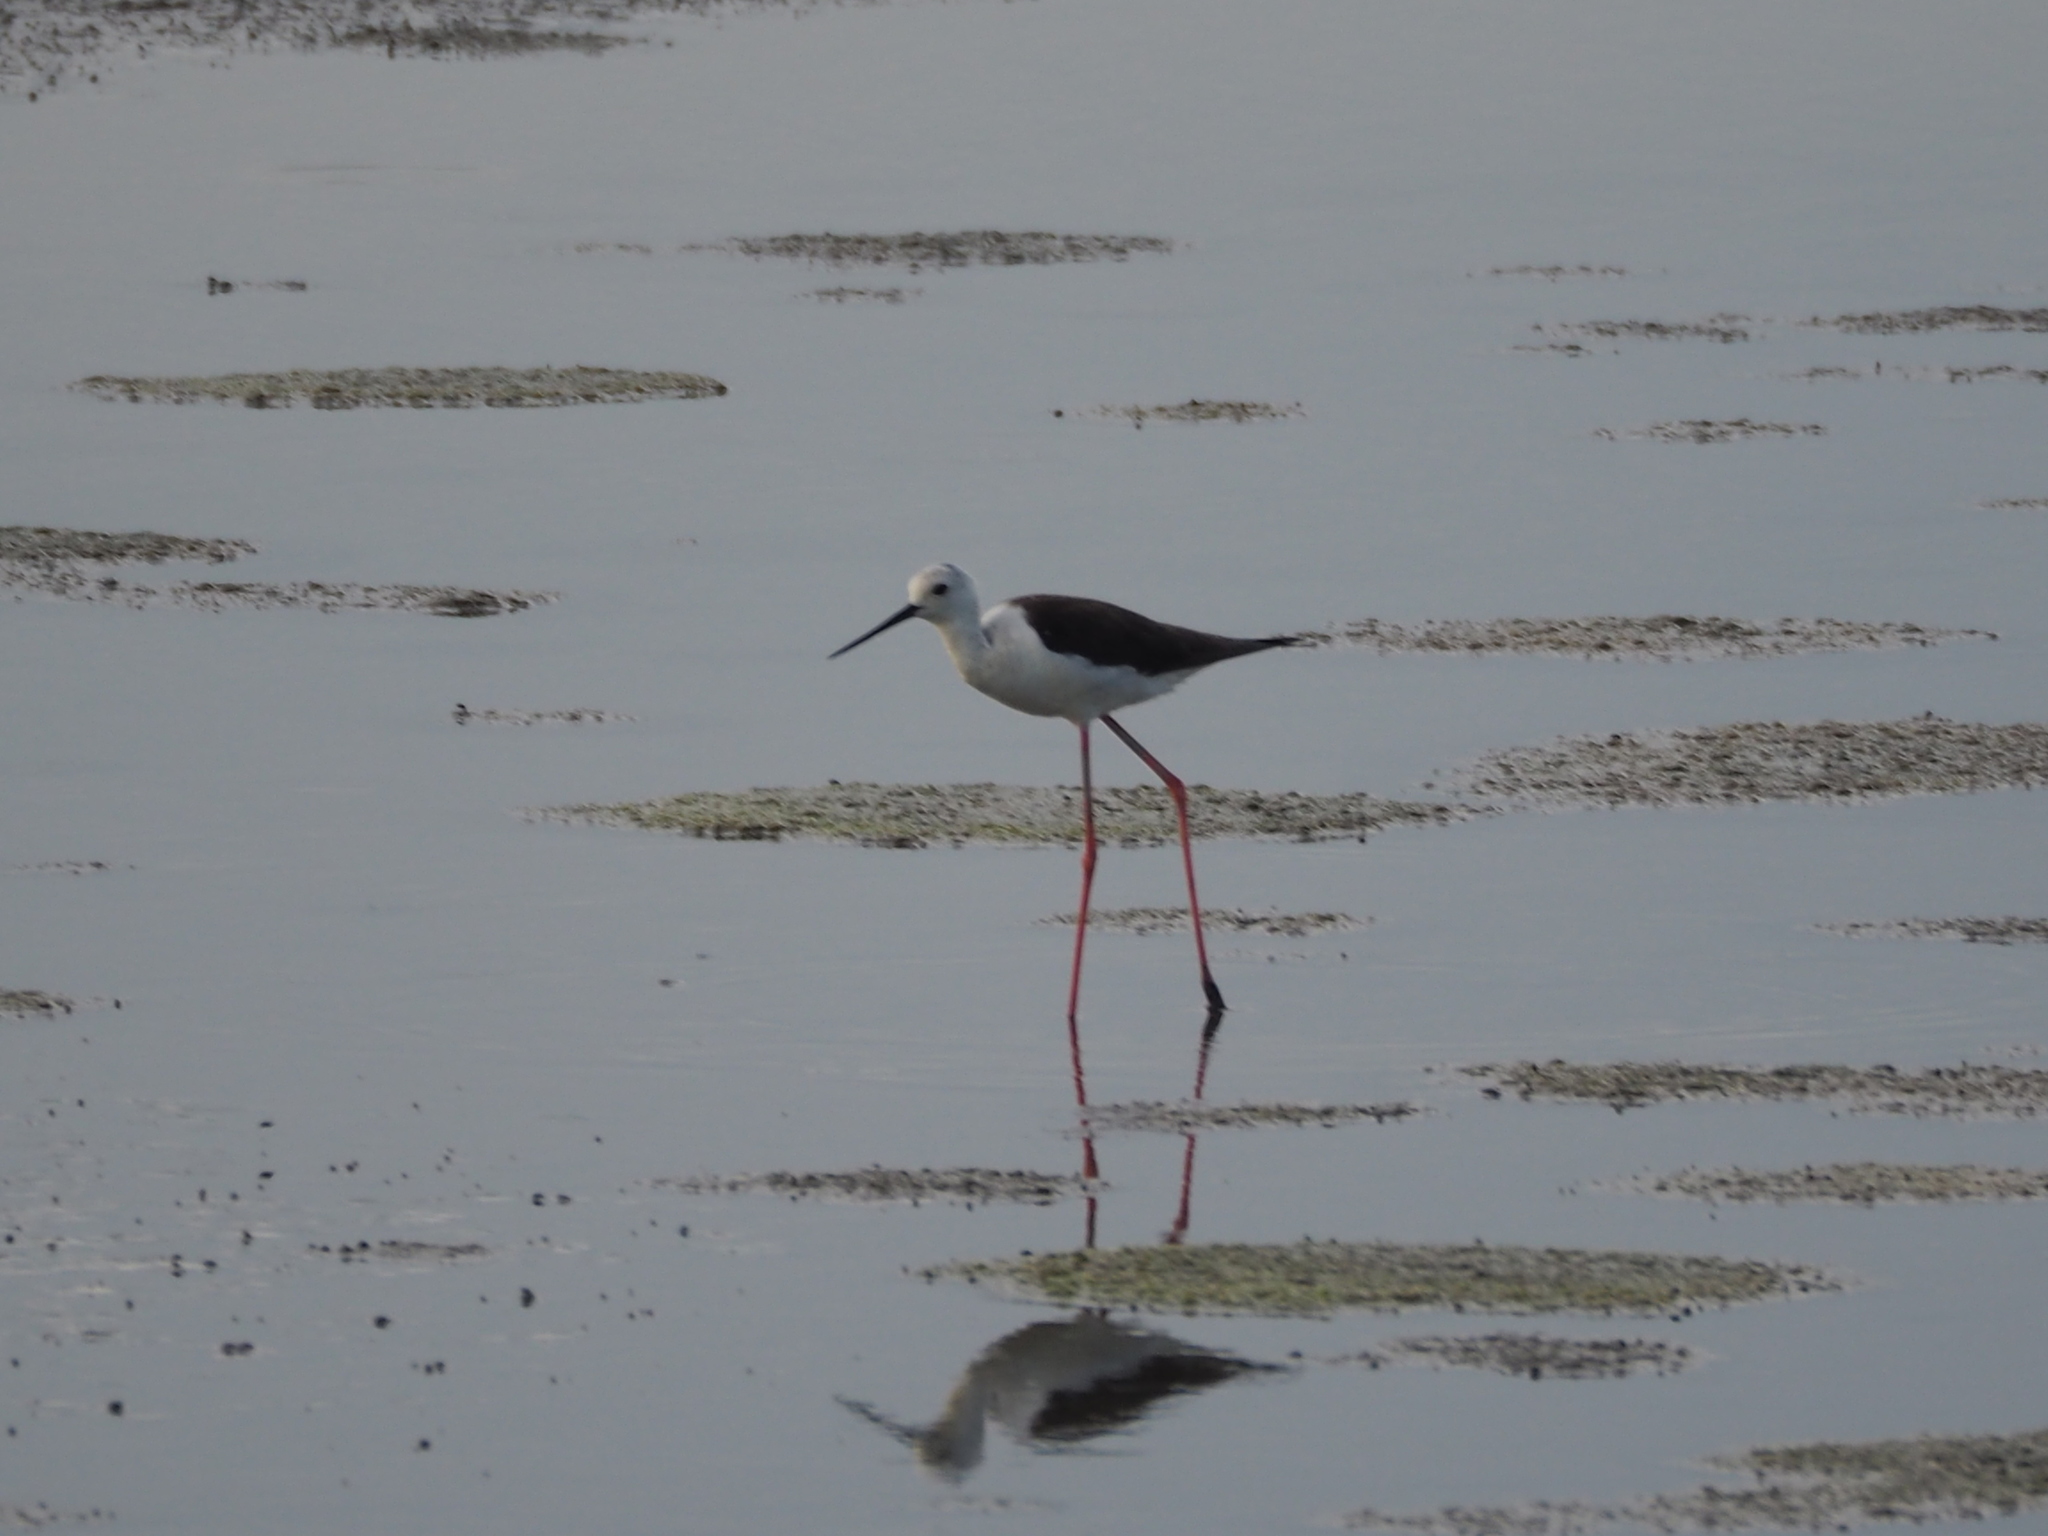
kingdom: Animalia
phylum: Chordata
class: Aves
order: Charadriiformes
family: Recurvirostridae
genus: Himantopus
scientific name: Himantopus himantopus
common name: Black-winged stilt
